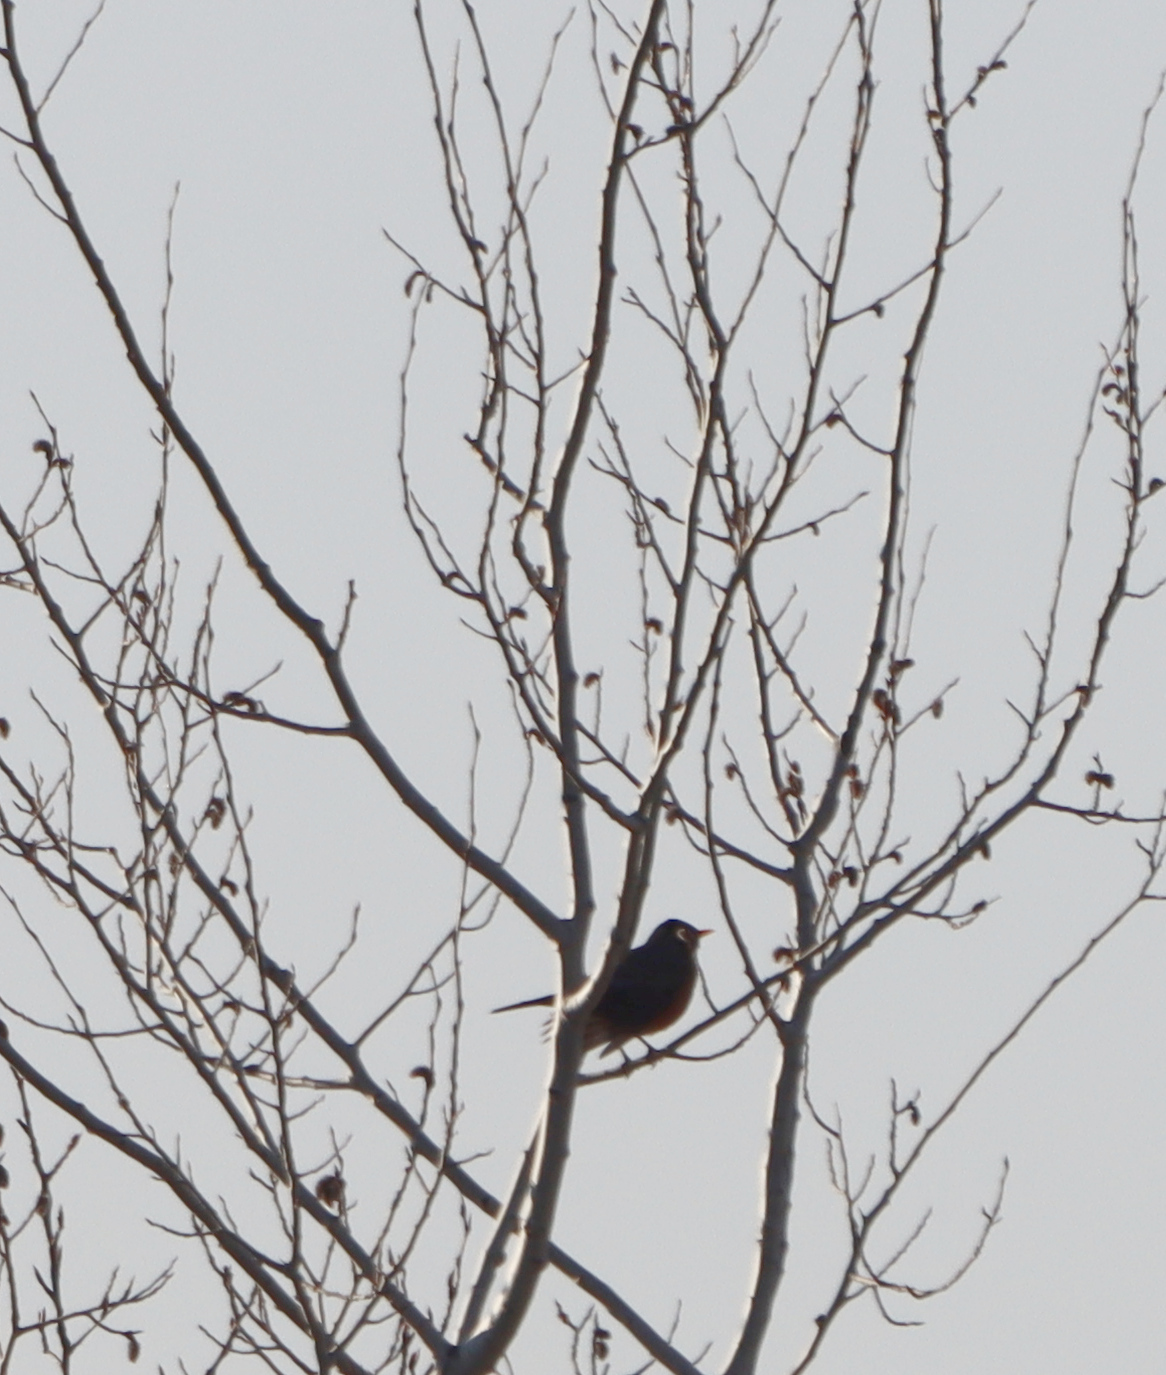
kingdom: Animalia
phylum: Chordata
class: Aves
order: Passeriformes
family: Turdidae
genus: Turdus
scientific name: Turdus migratorius
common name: American robin
